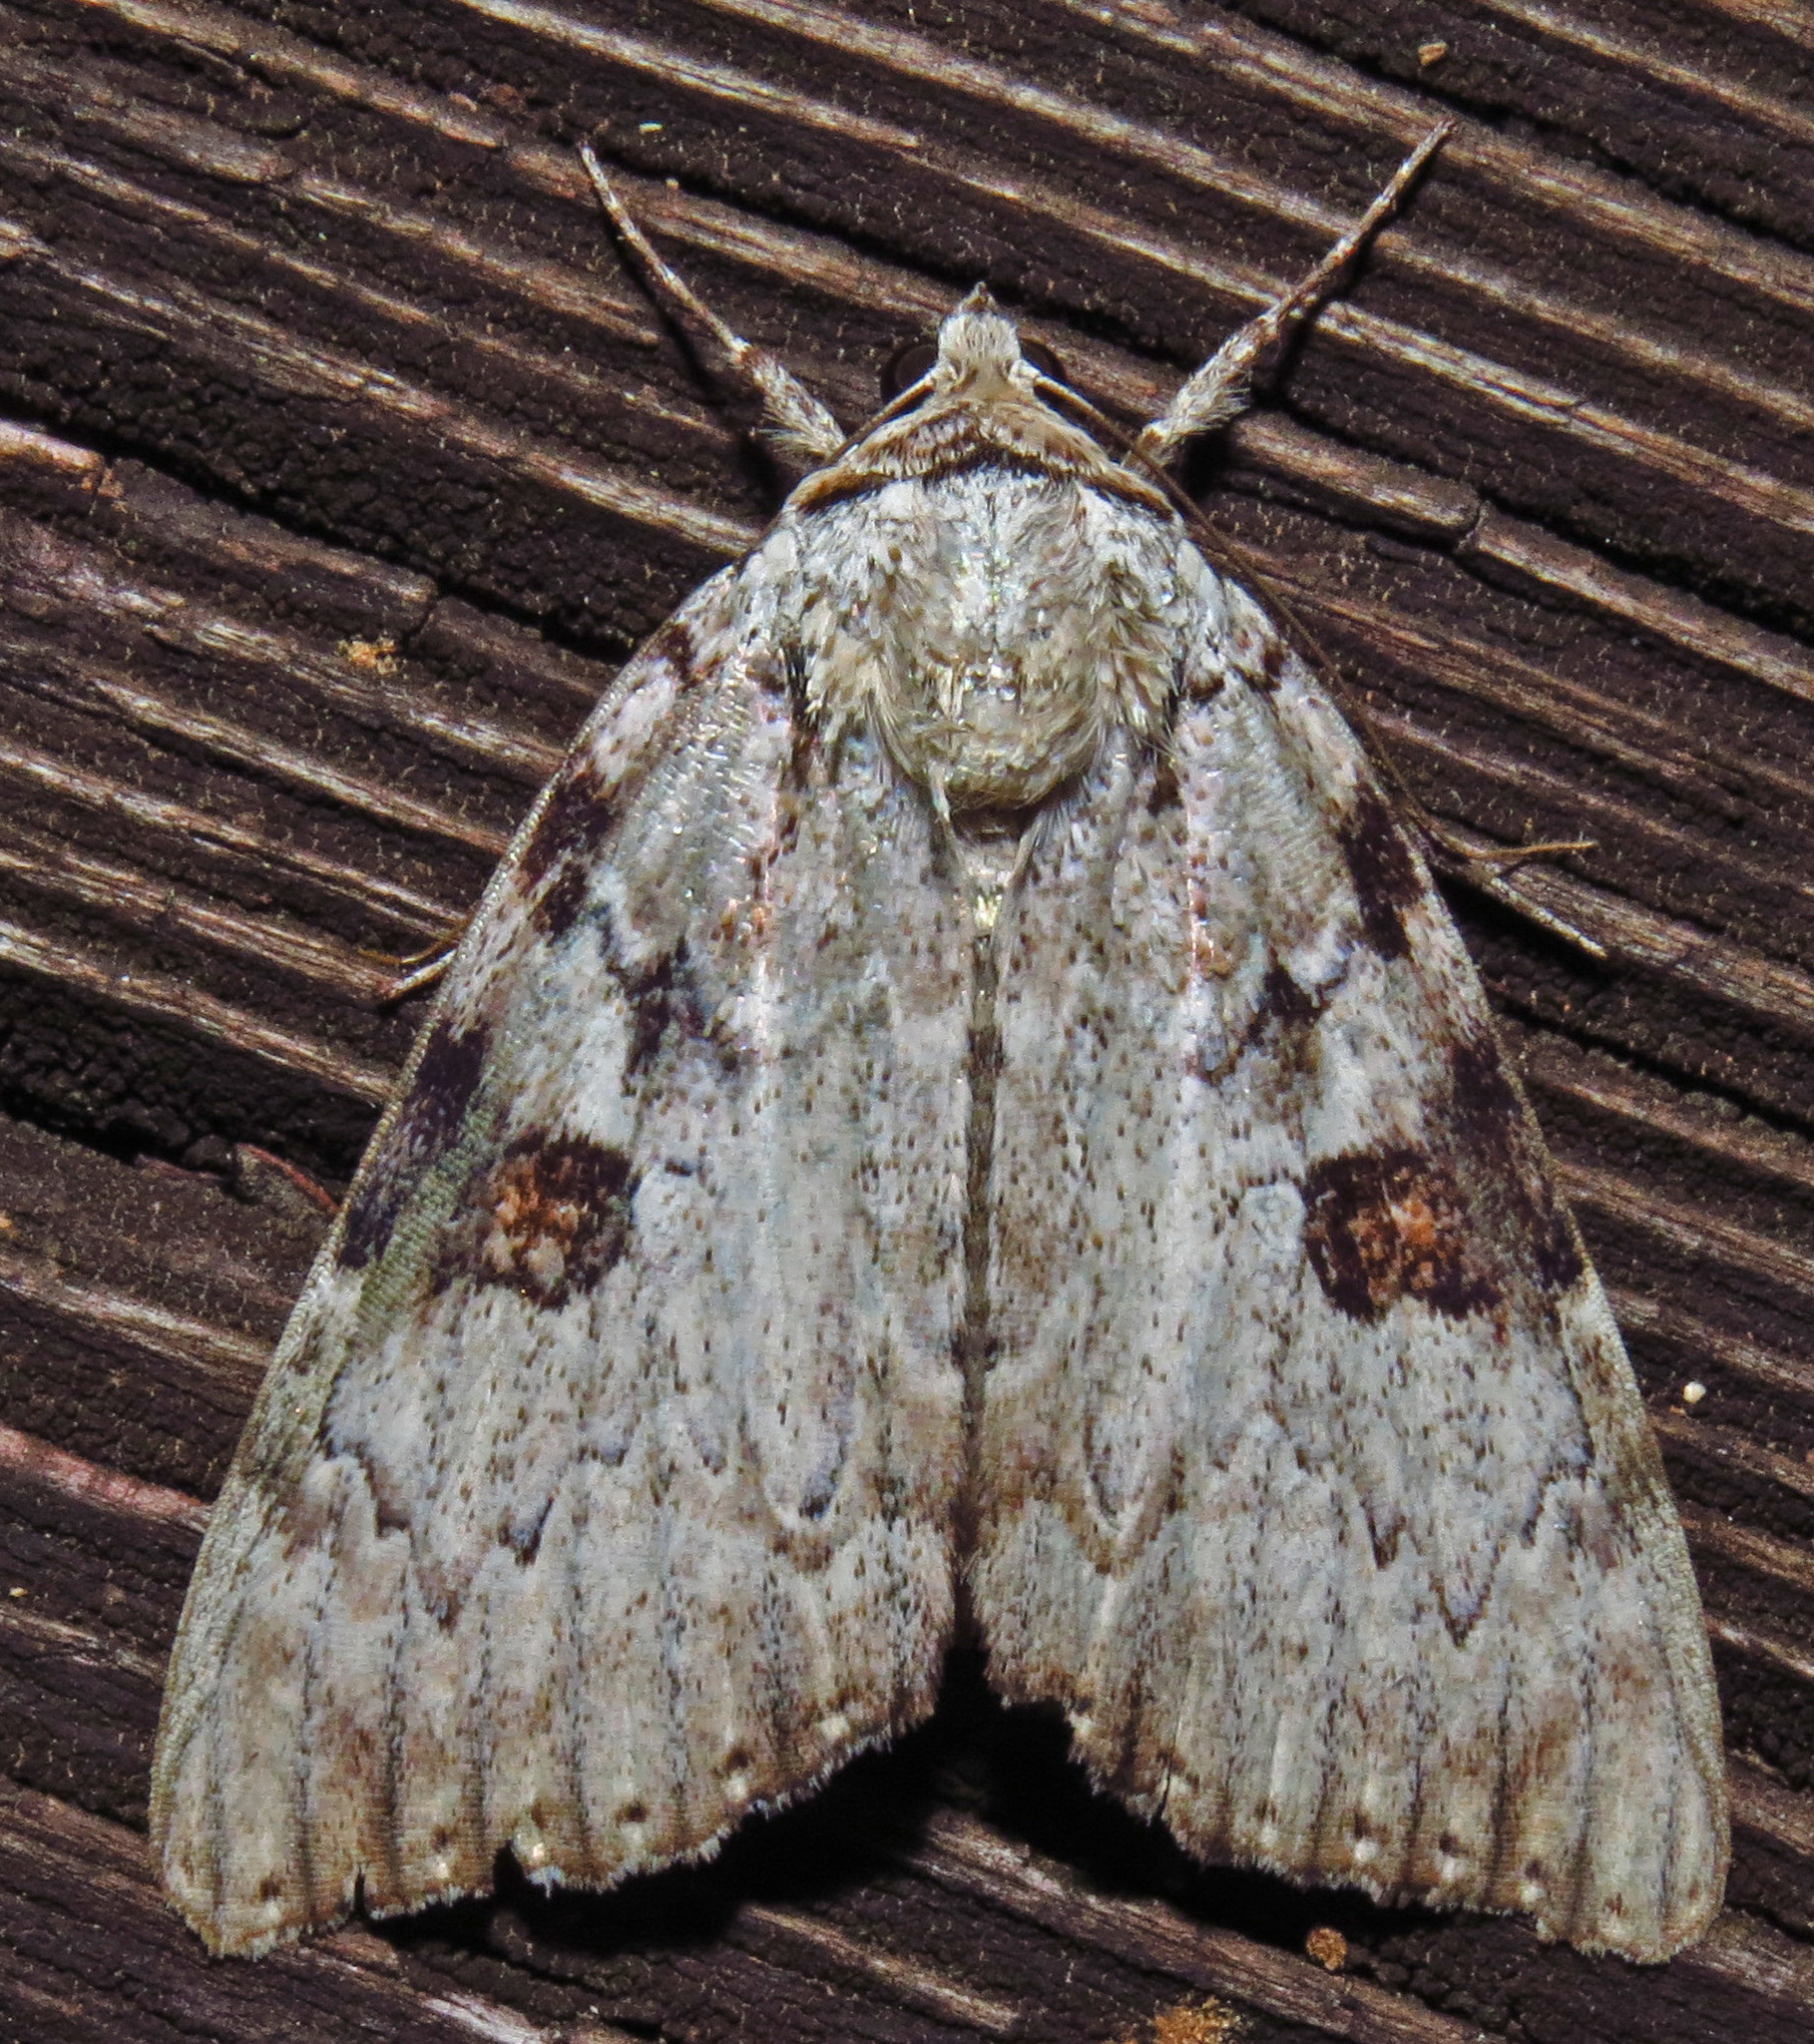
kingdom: Animalia
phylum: Arthropoda
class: Insecta
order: Lepidoptera
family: Erebidae
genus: Catocala
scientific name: Catocala sappho
